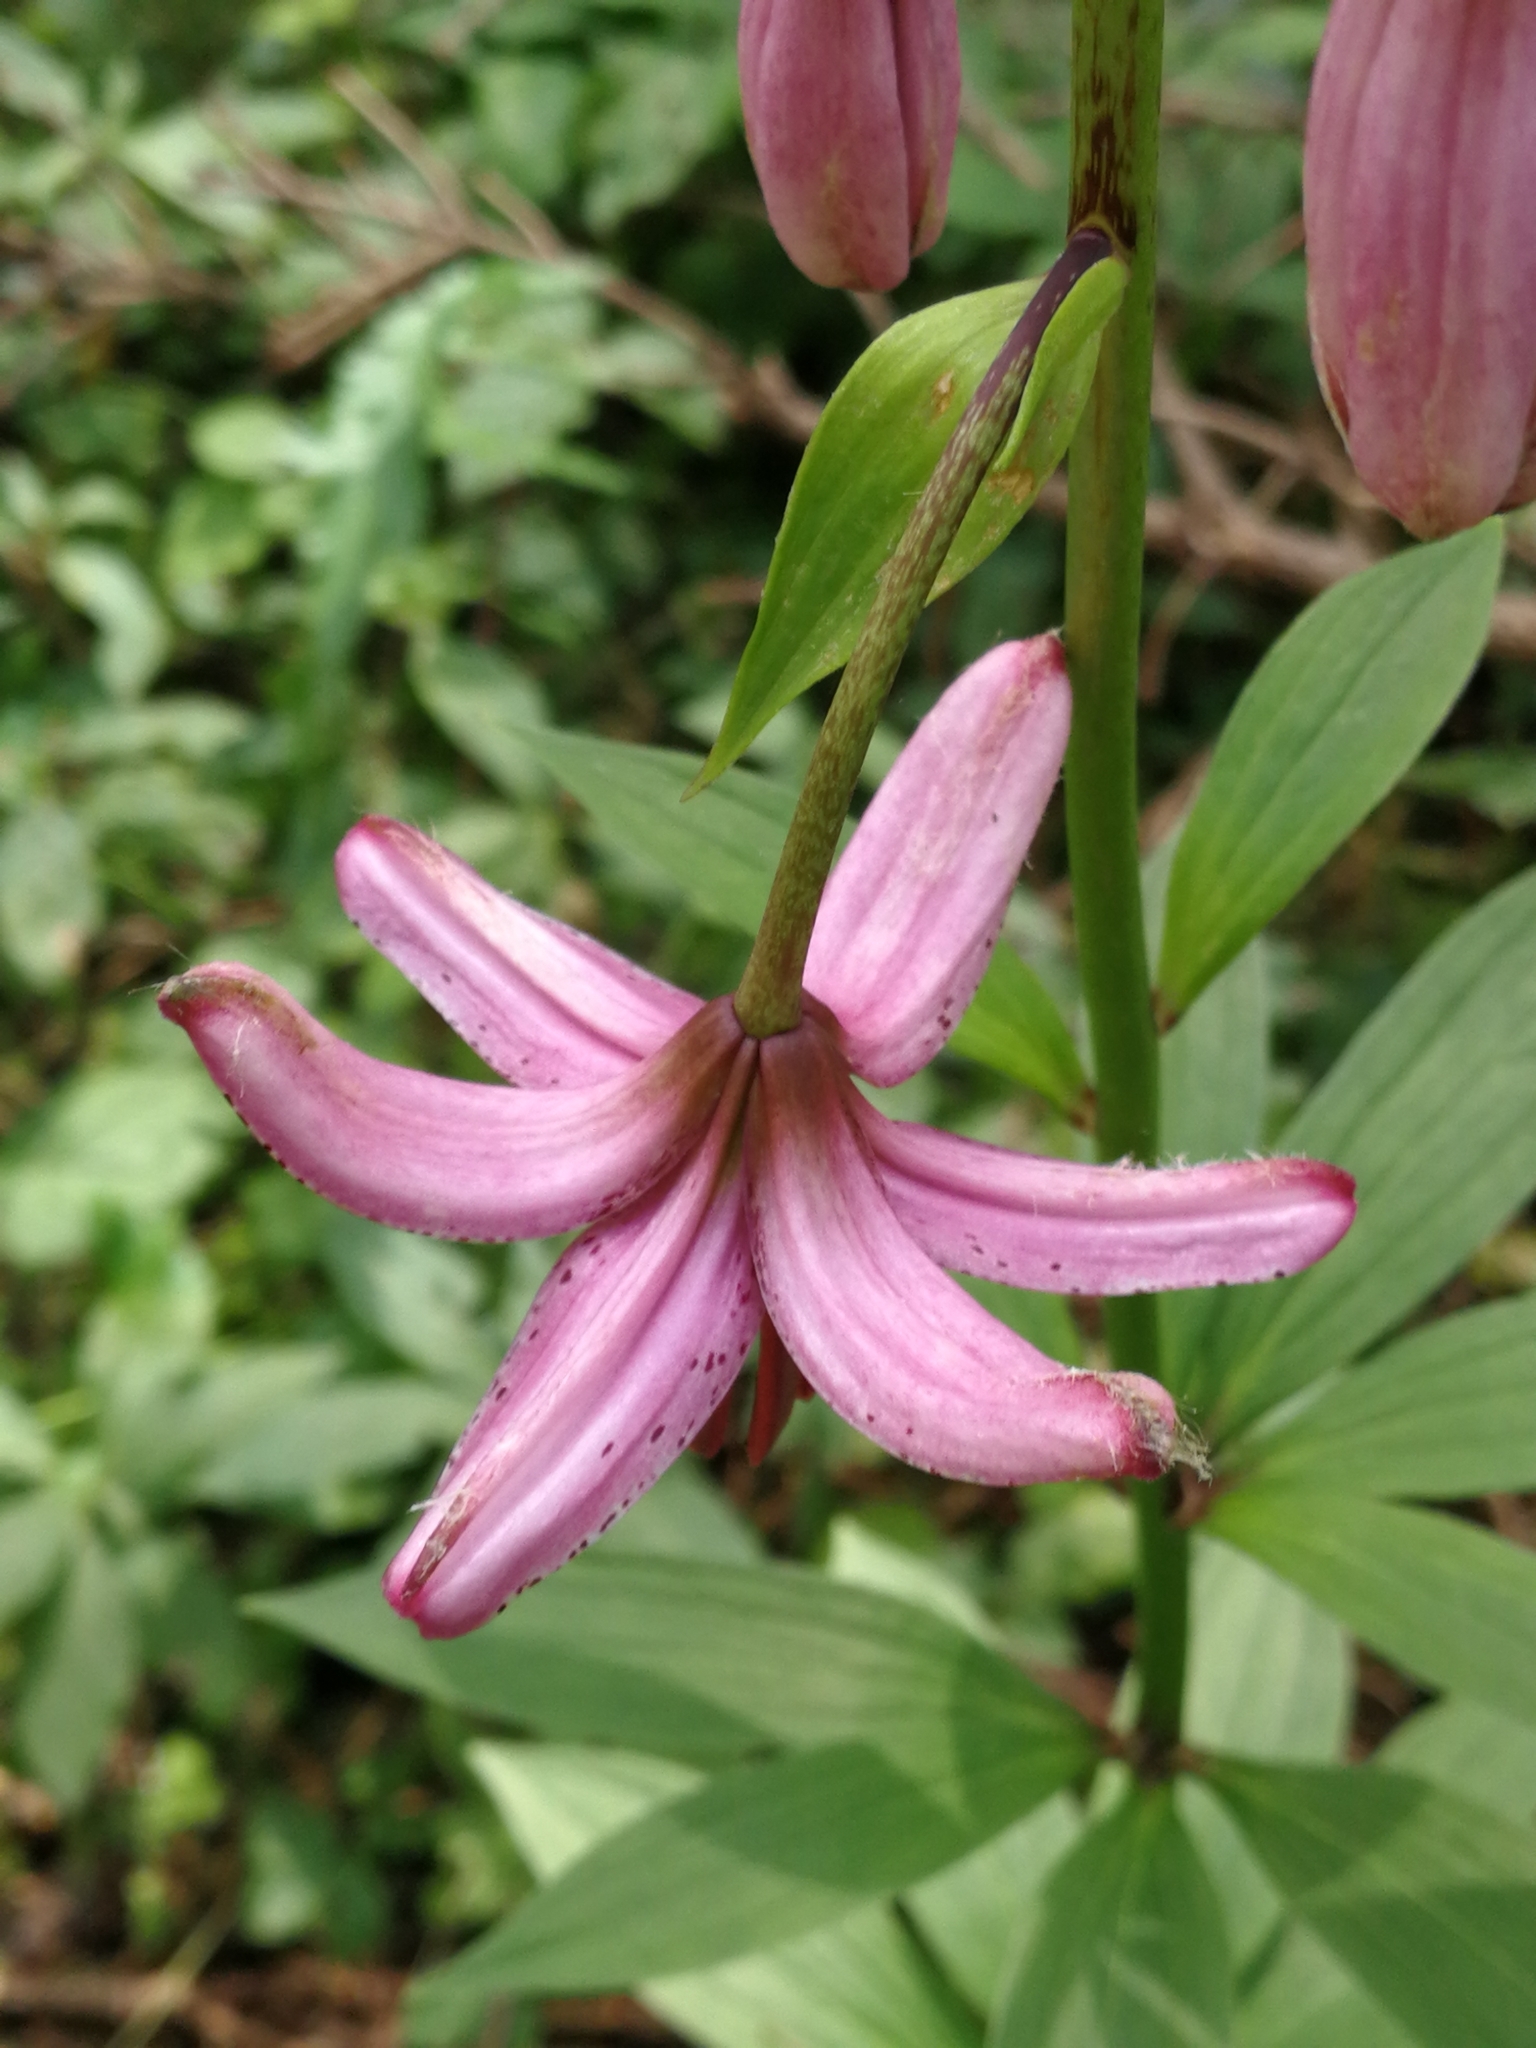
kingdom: Plantae
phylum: Tracheophyta
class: Liliopsida
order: Liliales
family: Liliaceae
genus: Lilium
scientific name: Lilium martagon
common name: Martagon lily
